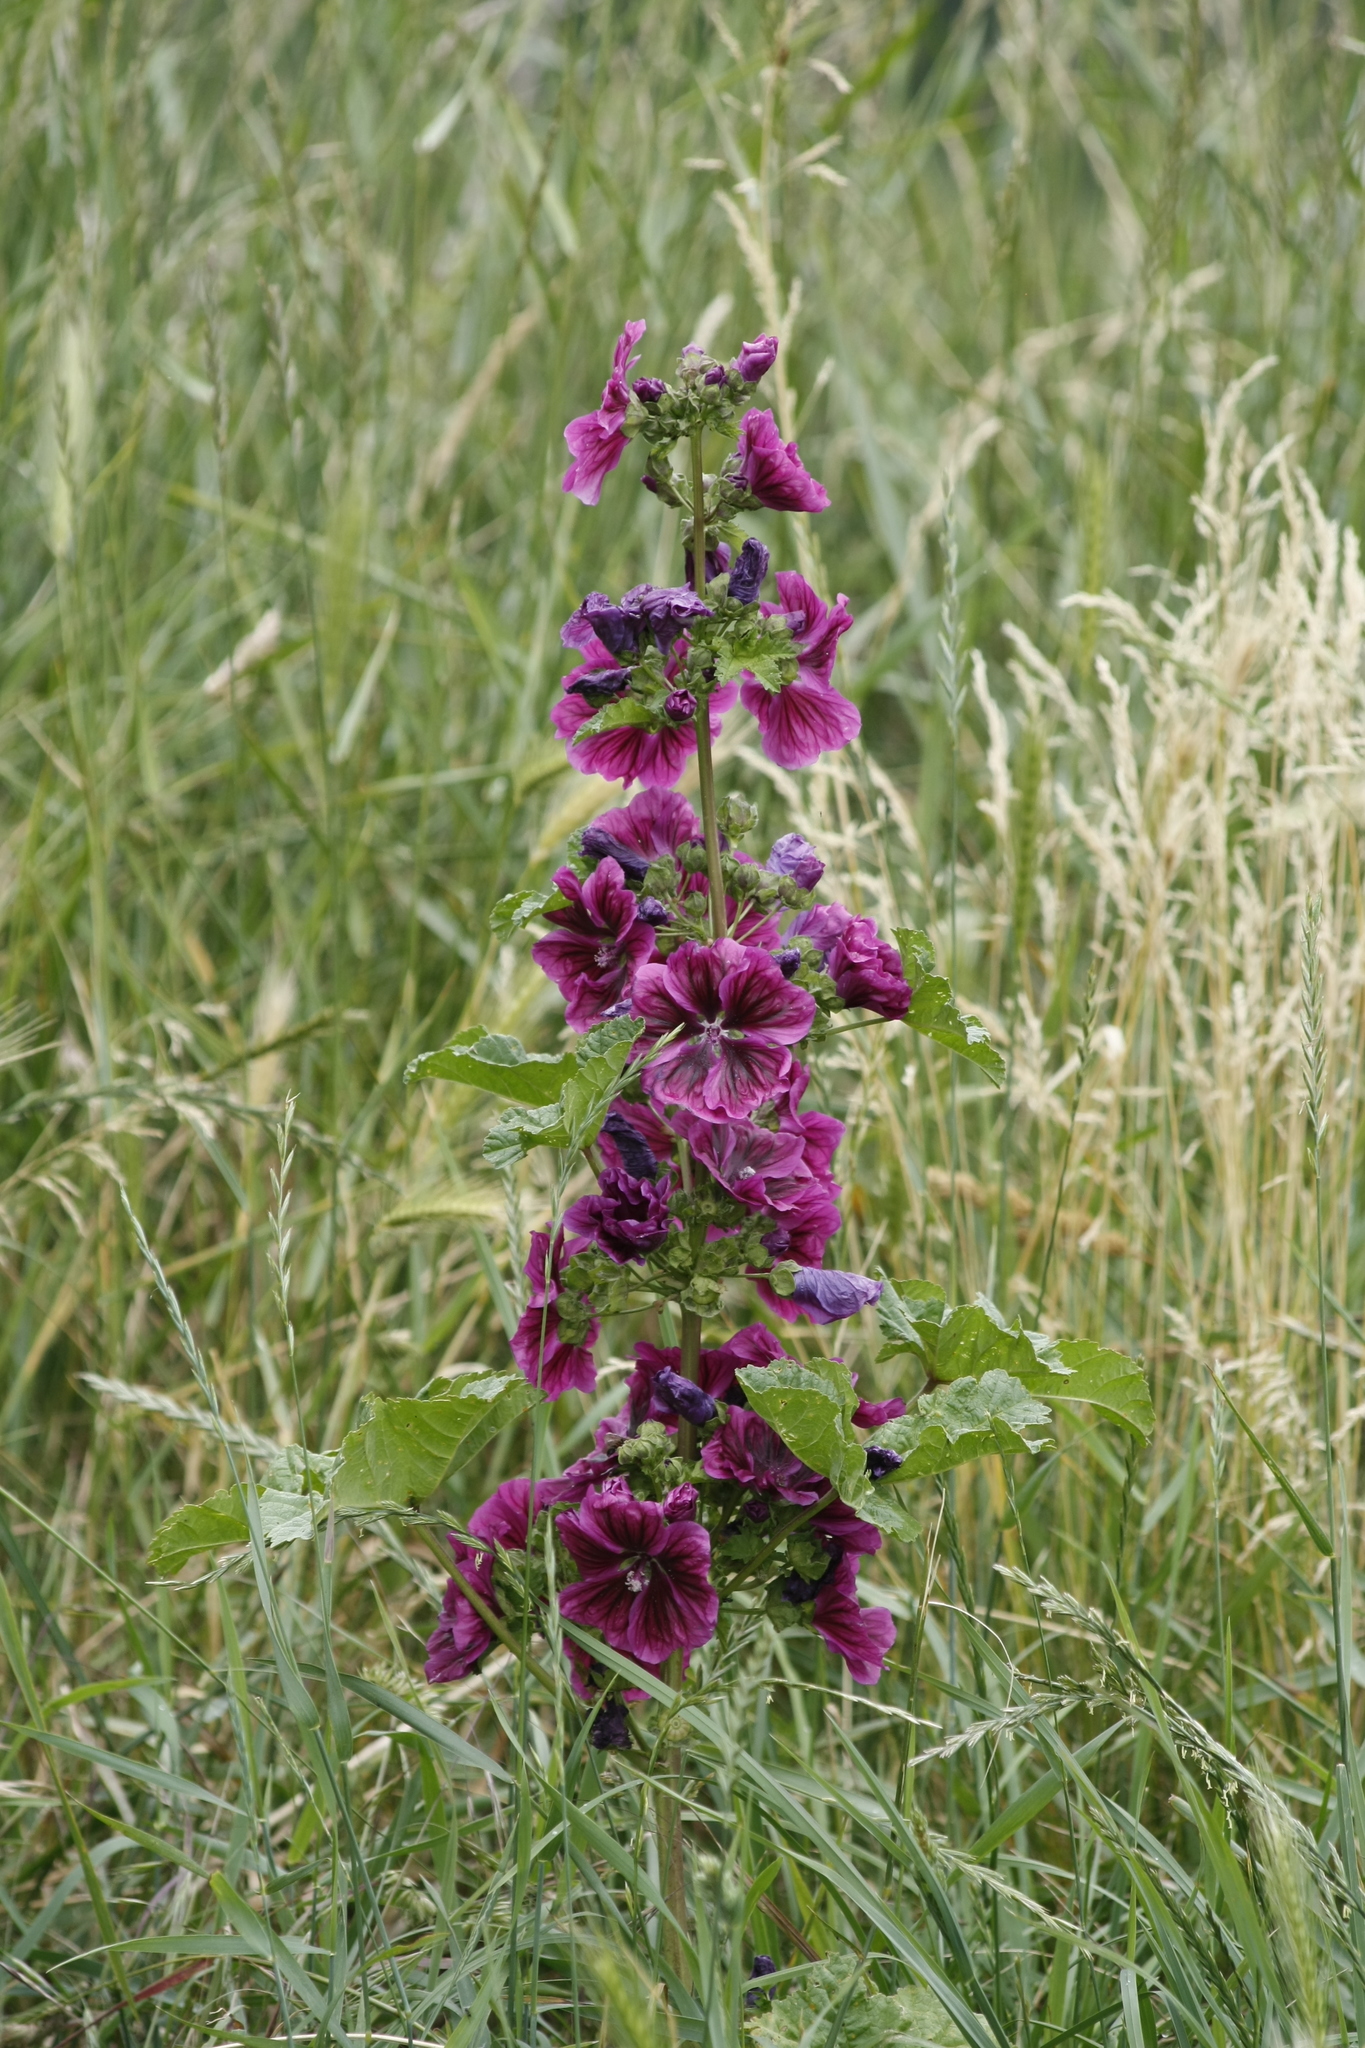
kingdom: Plantae
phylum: Tracheophyta
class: Magnoliopsida
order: Malvales
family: Malvaceae
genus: Malva
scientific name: Malva sylvestris
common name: Common mallow
